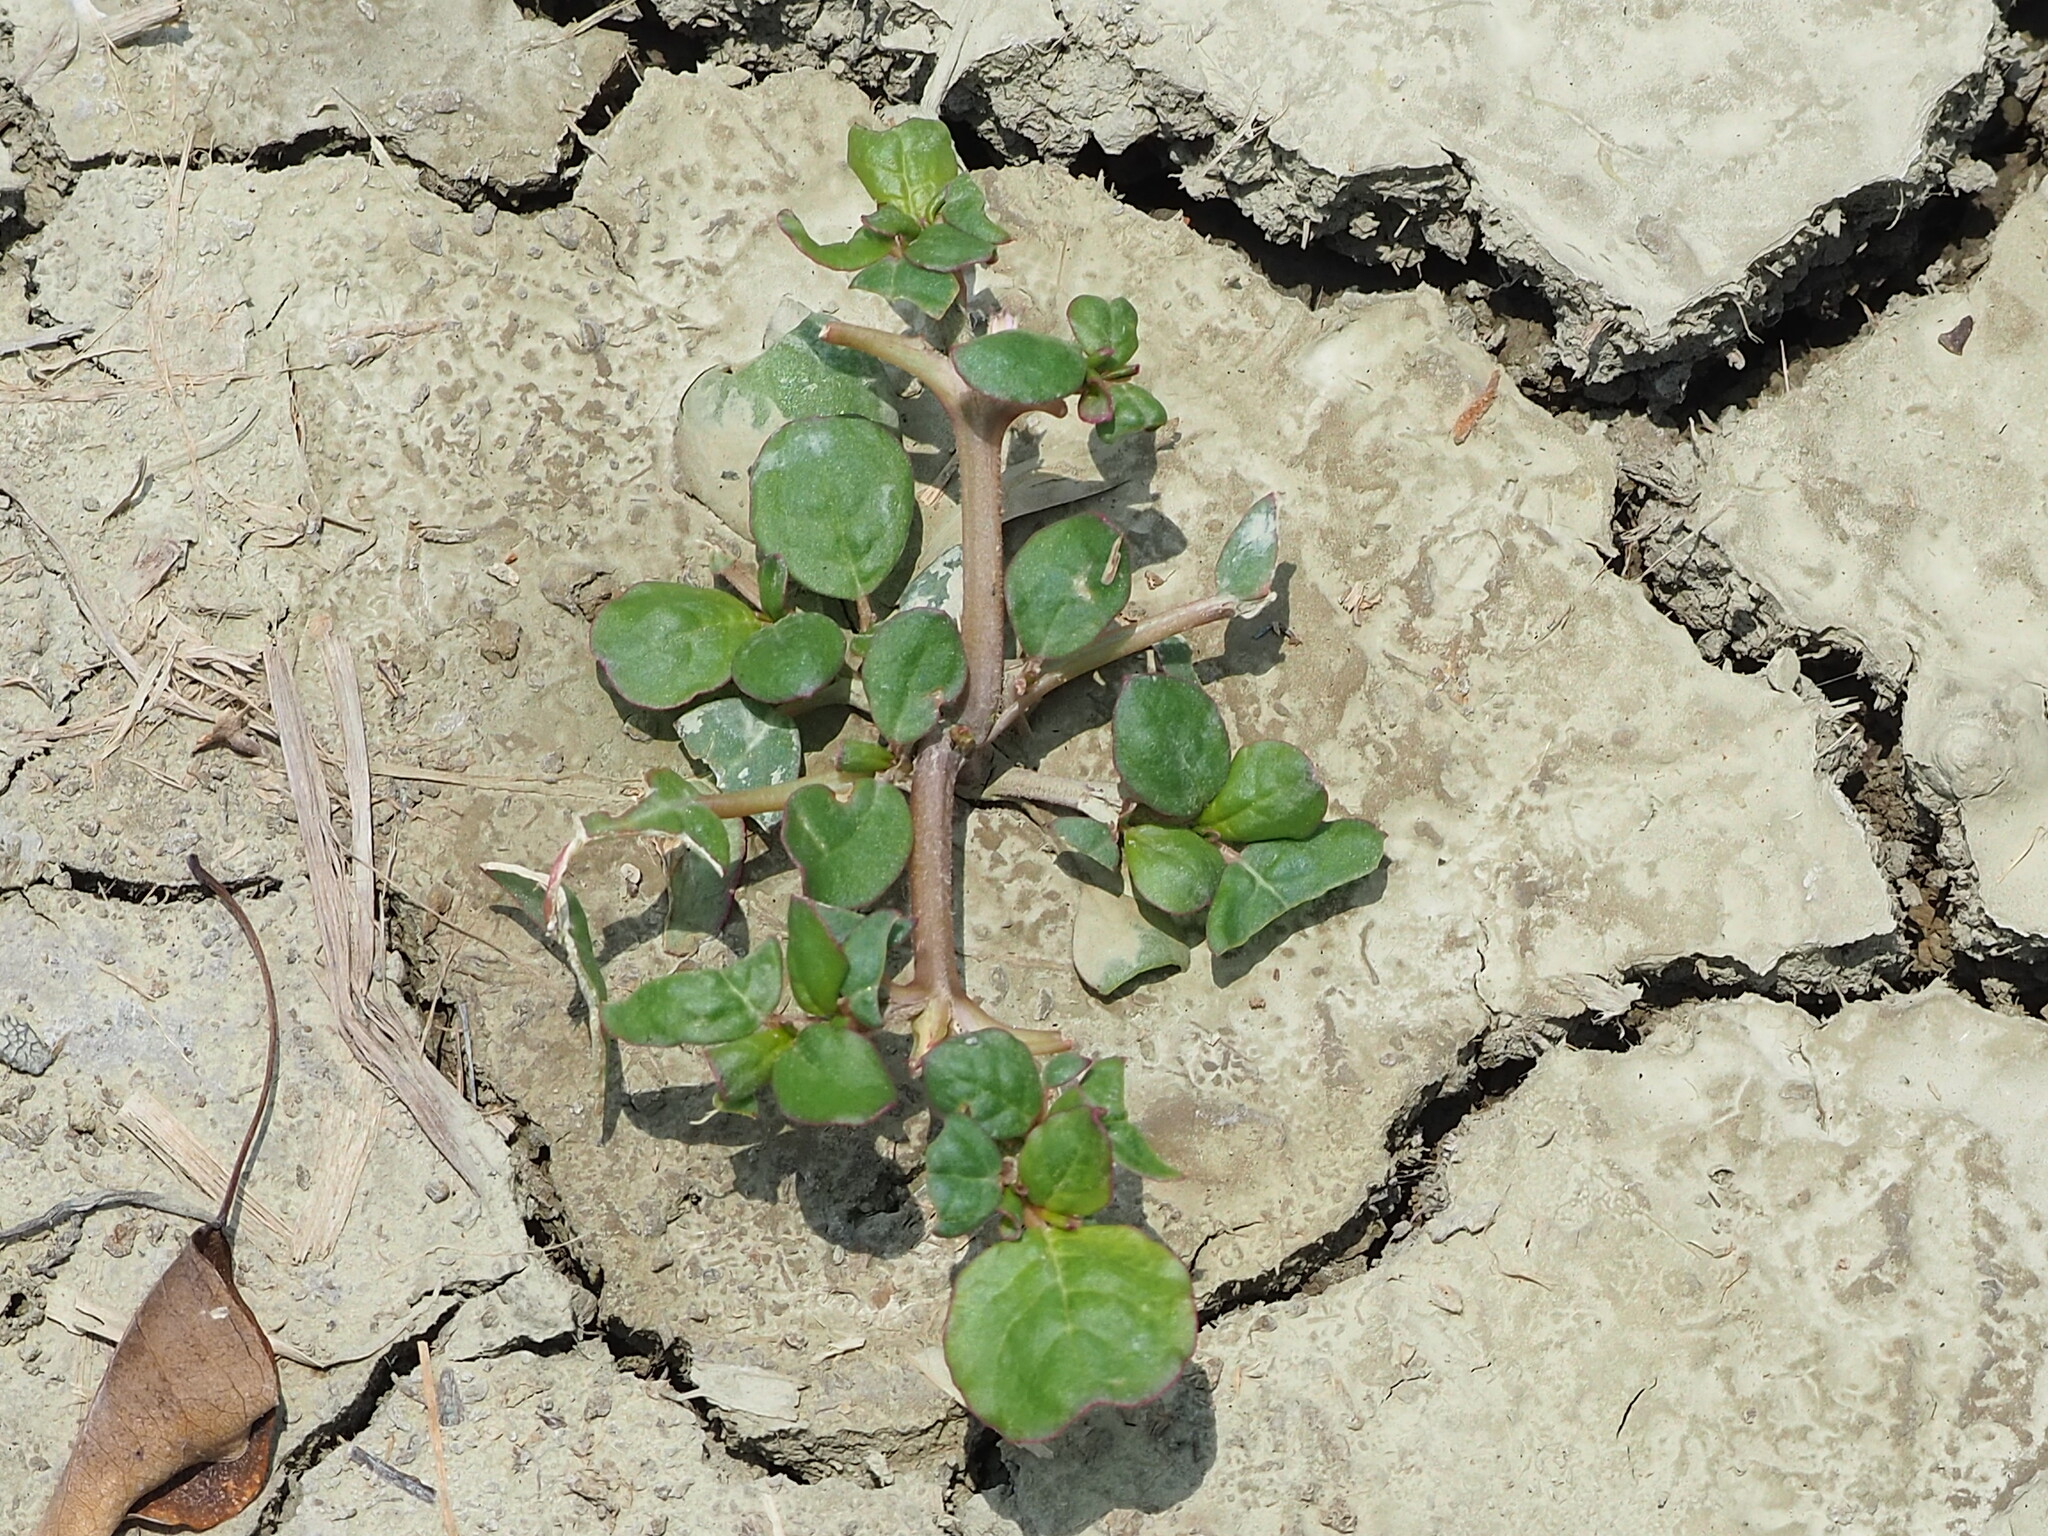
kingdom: Plantae
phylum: Tracheophyta
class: Magnoliopsida
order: Caryophyllales
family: Aizoaceae
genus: Trianthema
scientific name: Trianthema portulacastrum
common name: Desert horsepurslane
